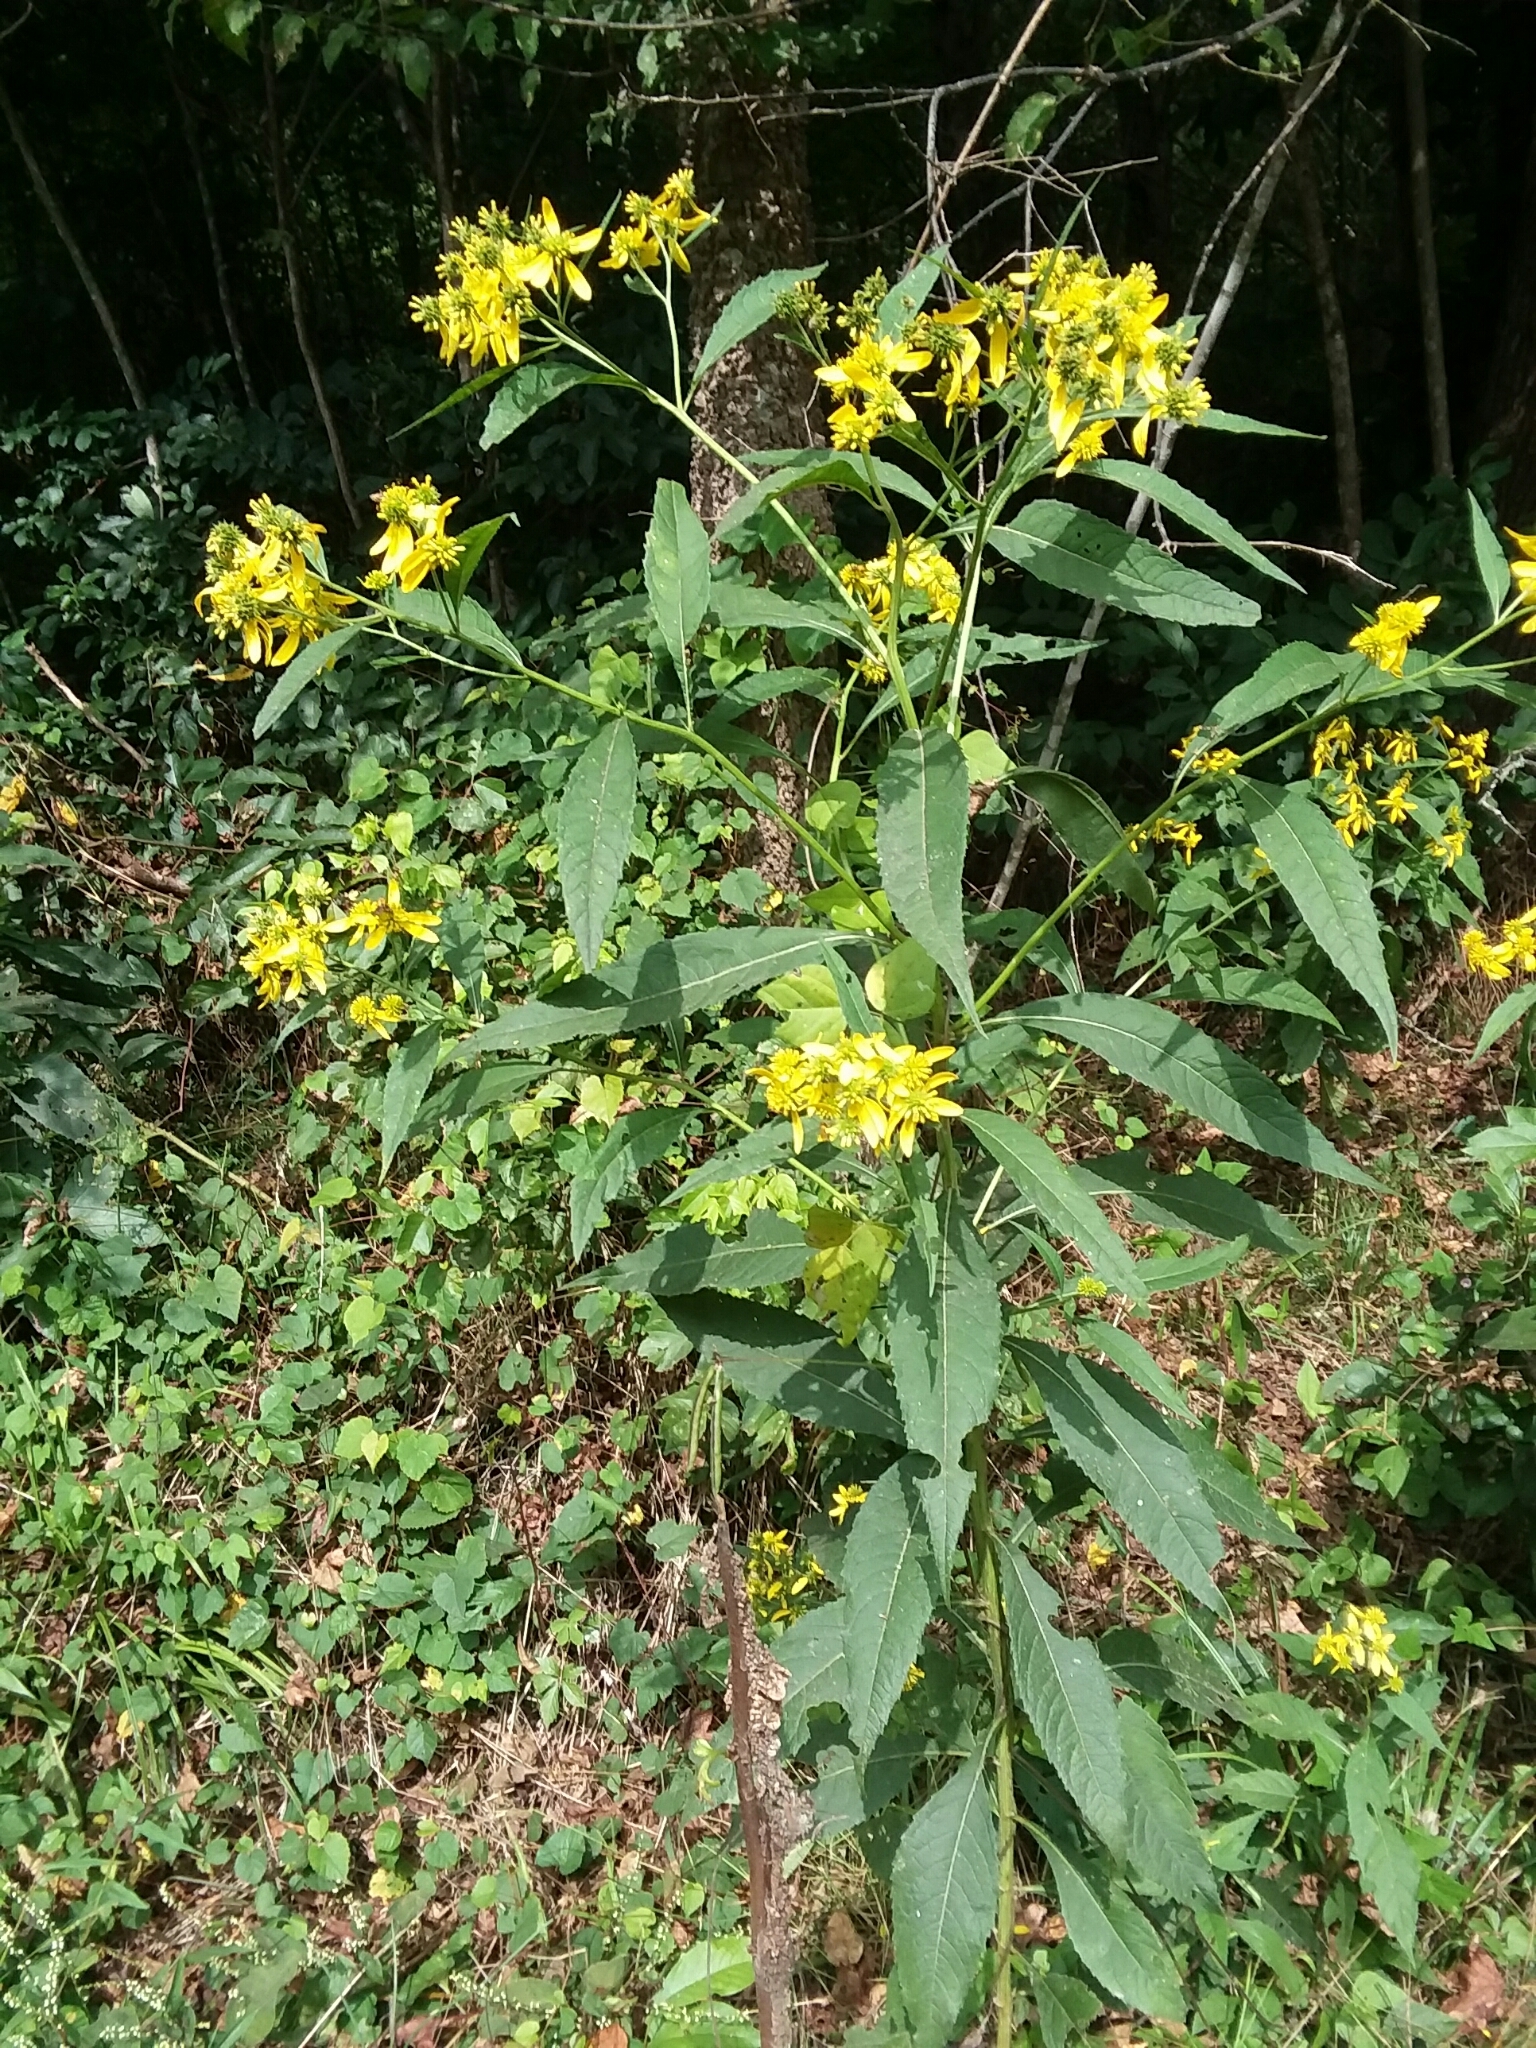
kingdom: Plantae
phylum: Tracheophyta
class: Magnoliopsida
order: Asterales
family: Asteraceae
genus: Verbesina
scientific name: Verbesina alternifolia
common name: Wingstem
